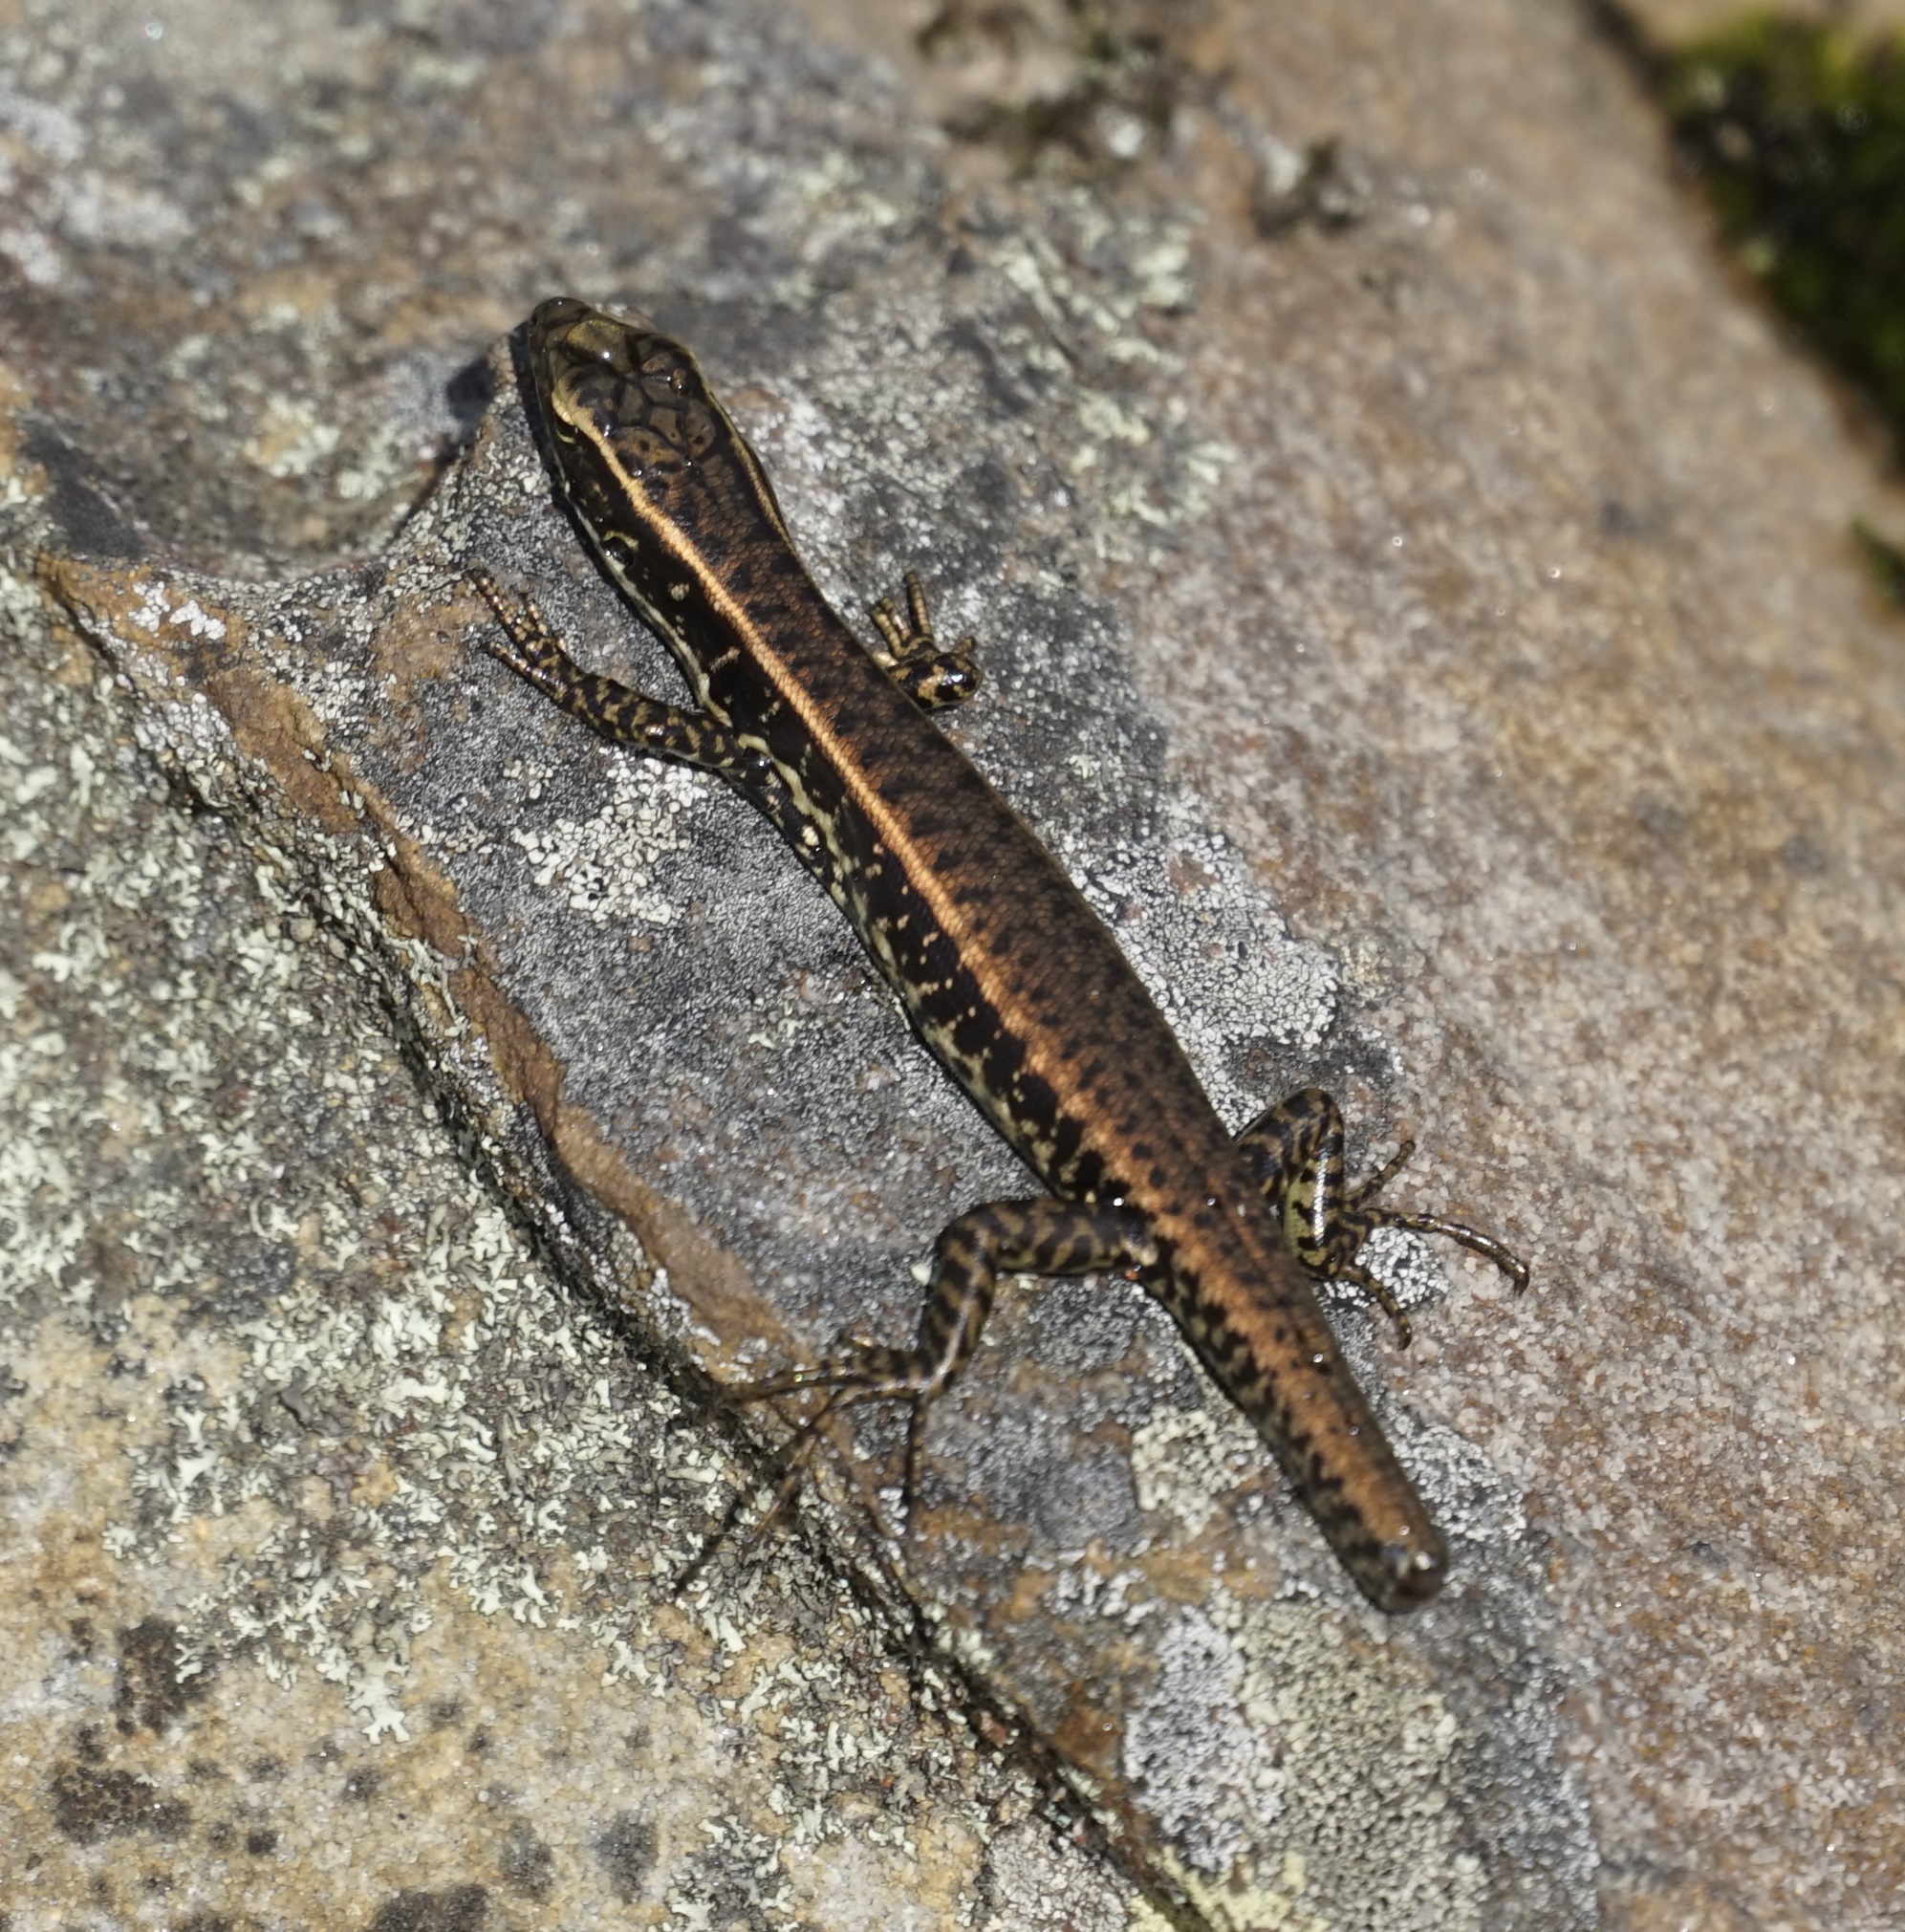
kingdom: Animalia
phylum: Chordata
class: Squamata
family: Scincidae
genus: Eulamprus
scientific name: Eulamprus quoyii
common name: Eastern water skink
